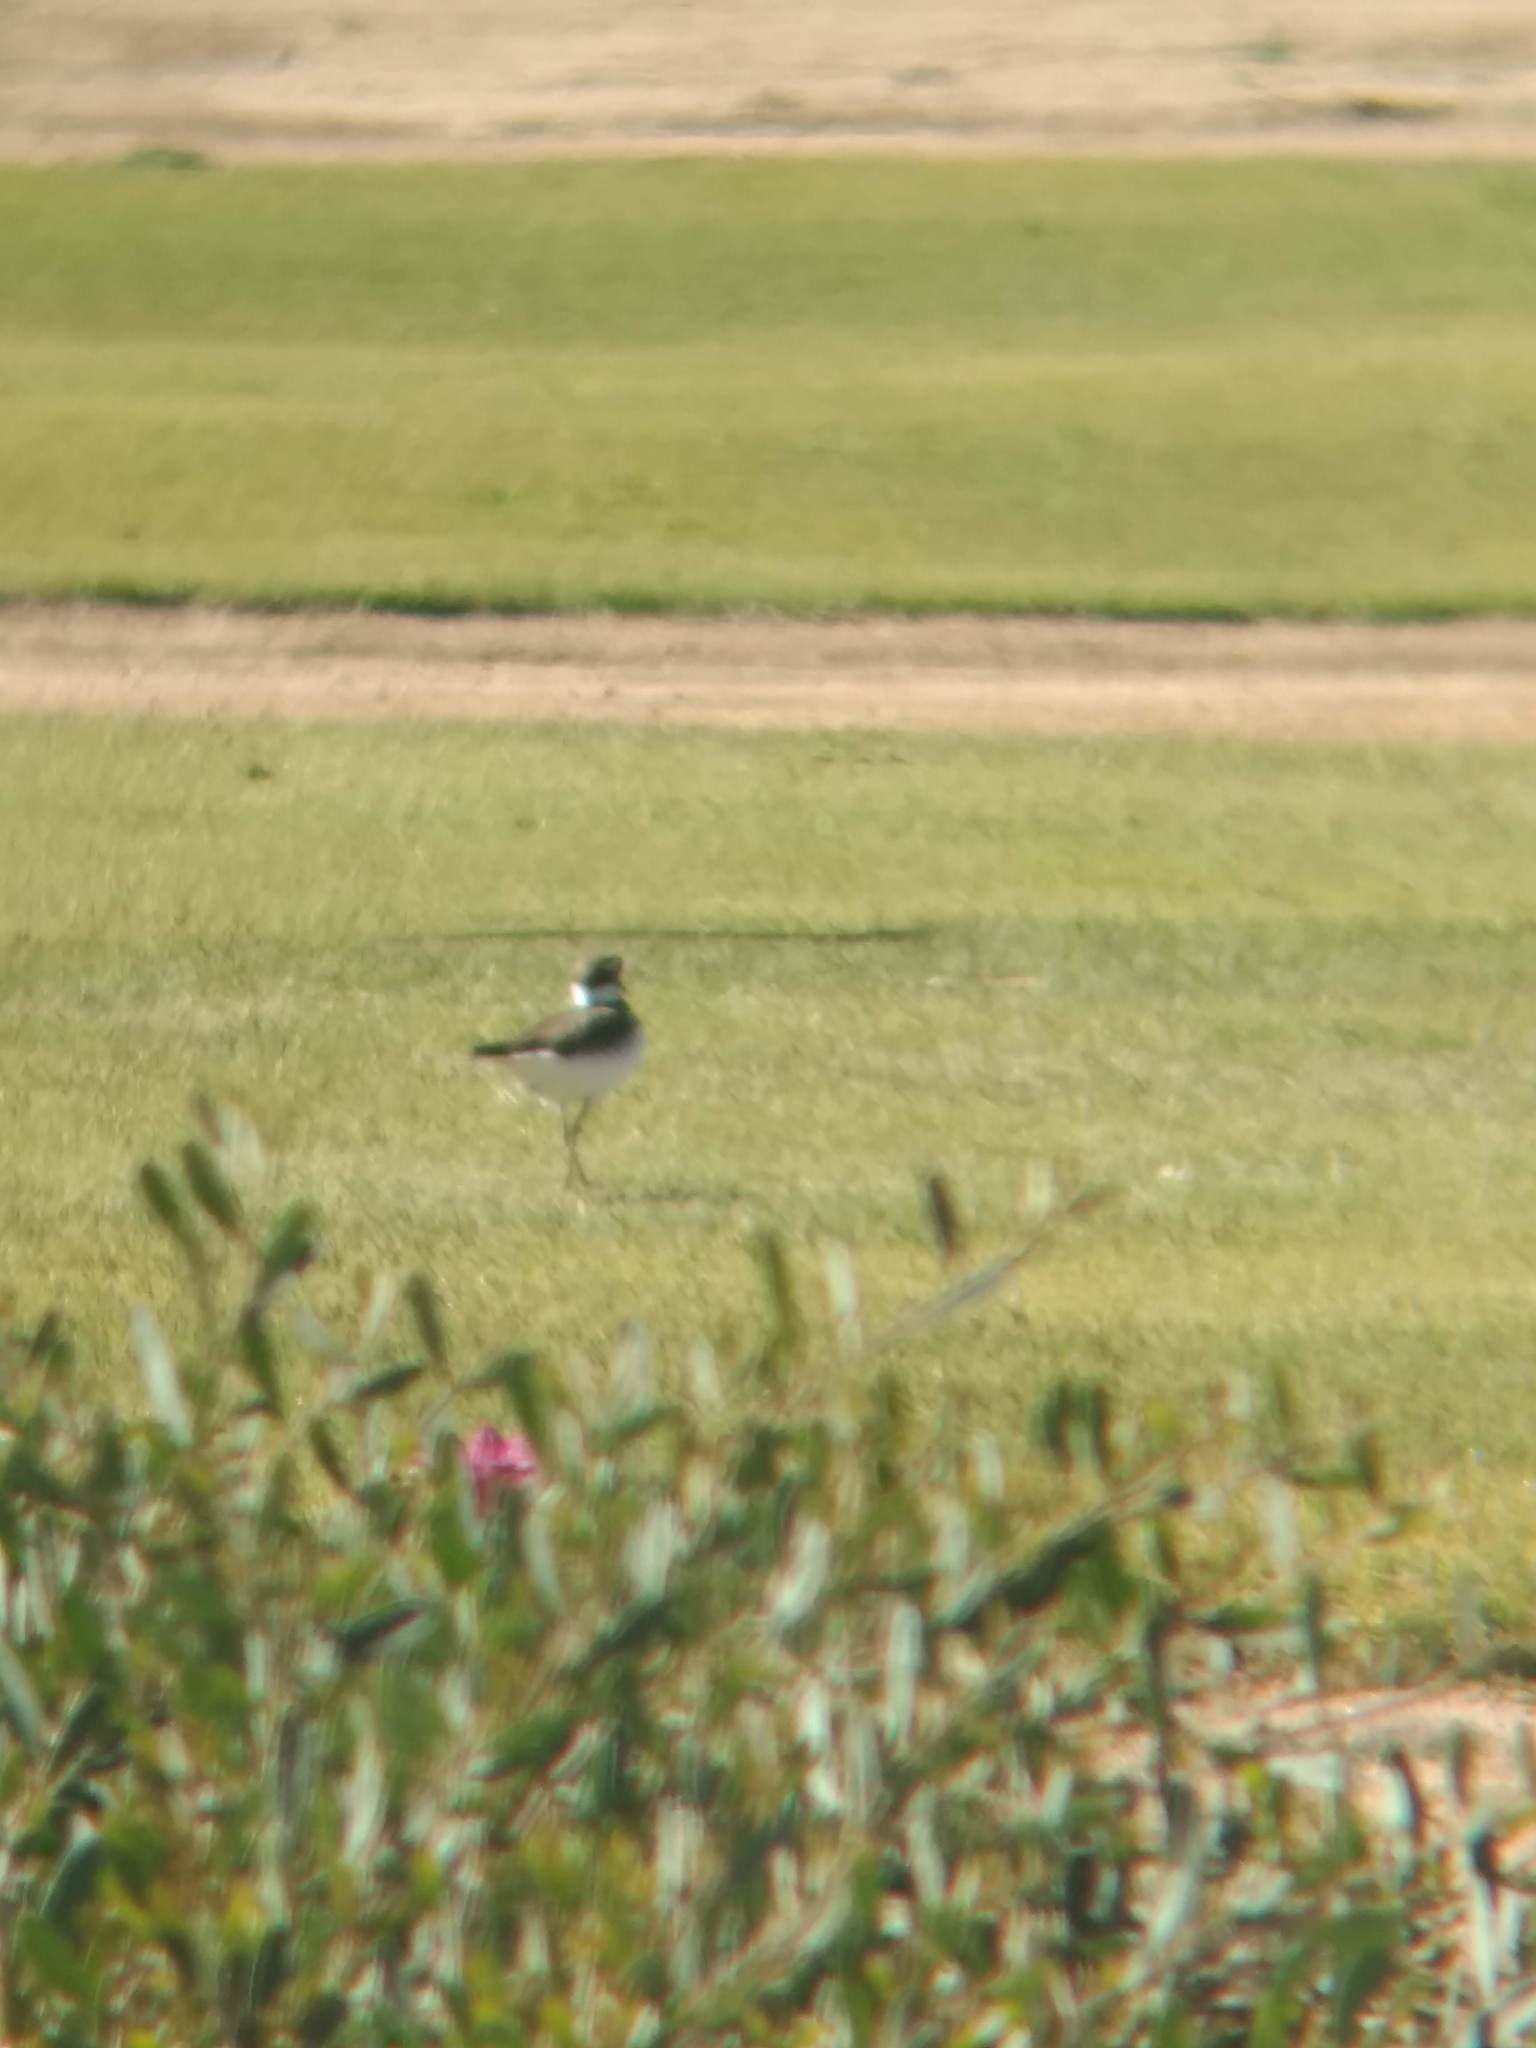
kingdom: Animalia
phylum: Chordata
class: Aves
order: Charadriiformes
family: Charadriidae
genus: Charadrius
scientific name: Charadrius vociferus
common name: Killdeer
